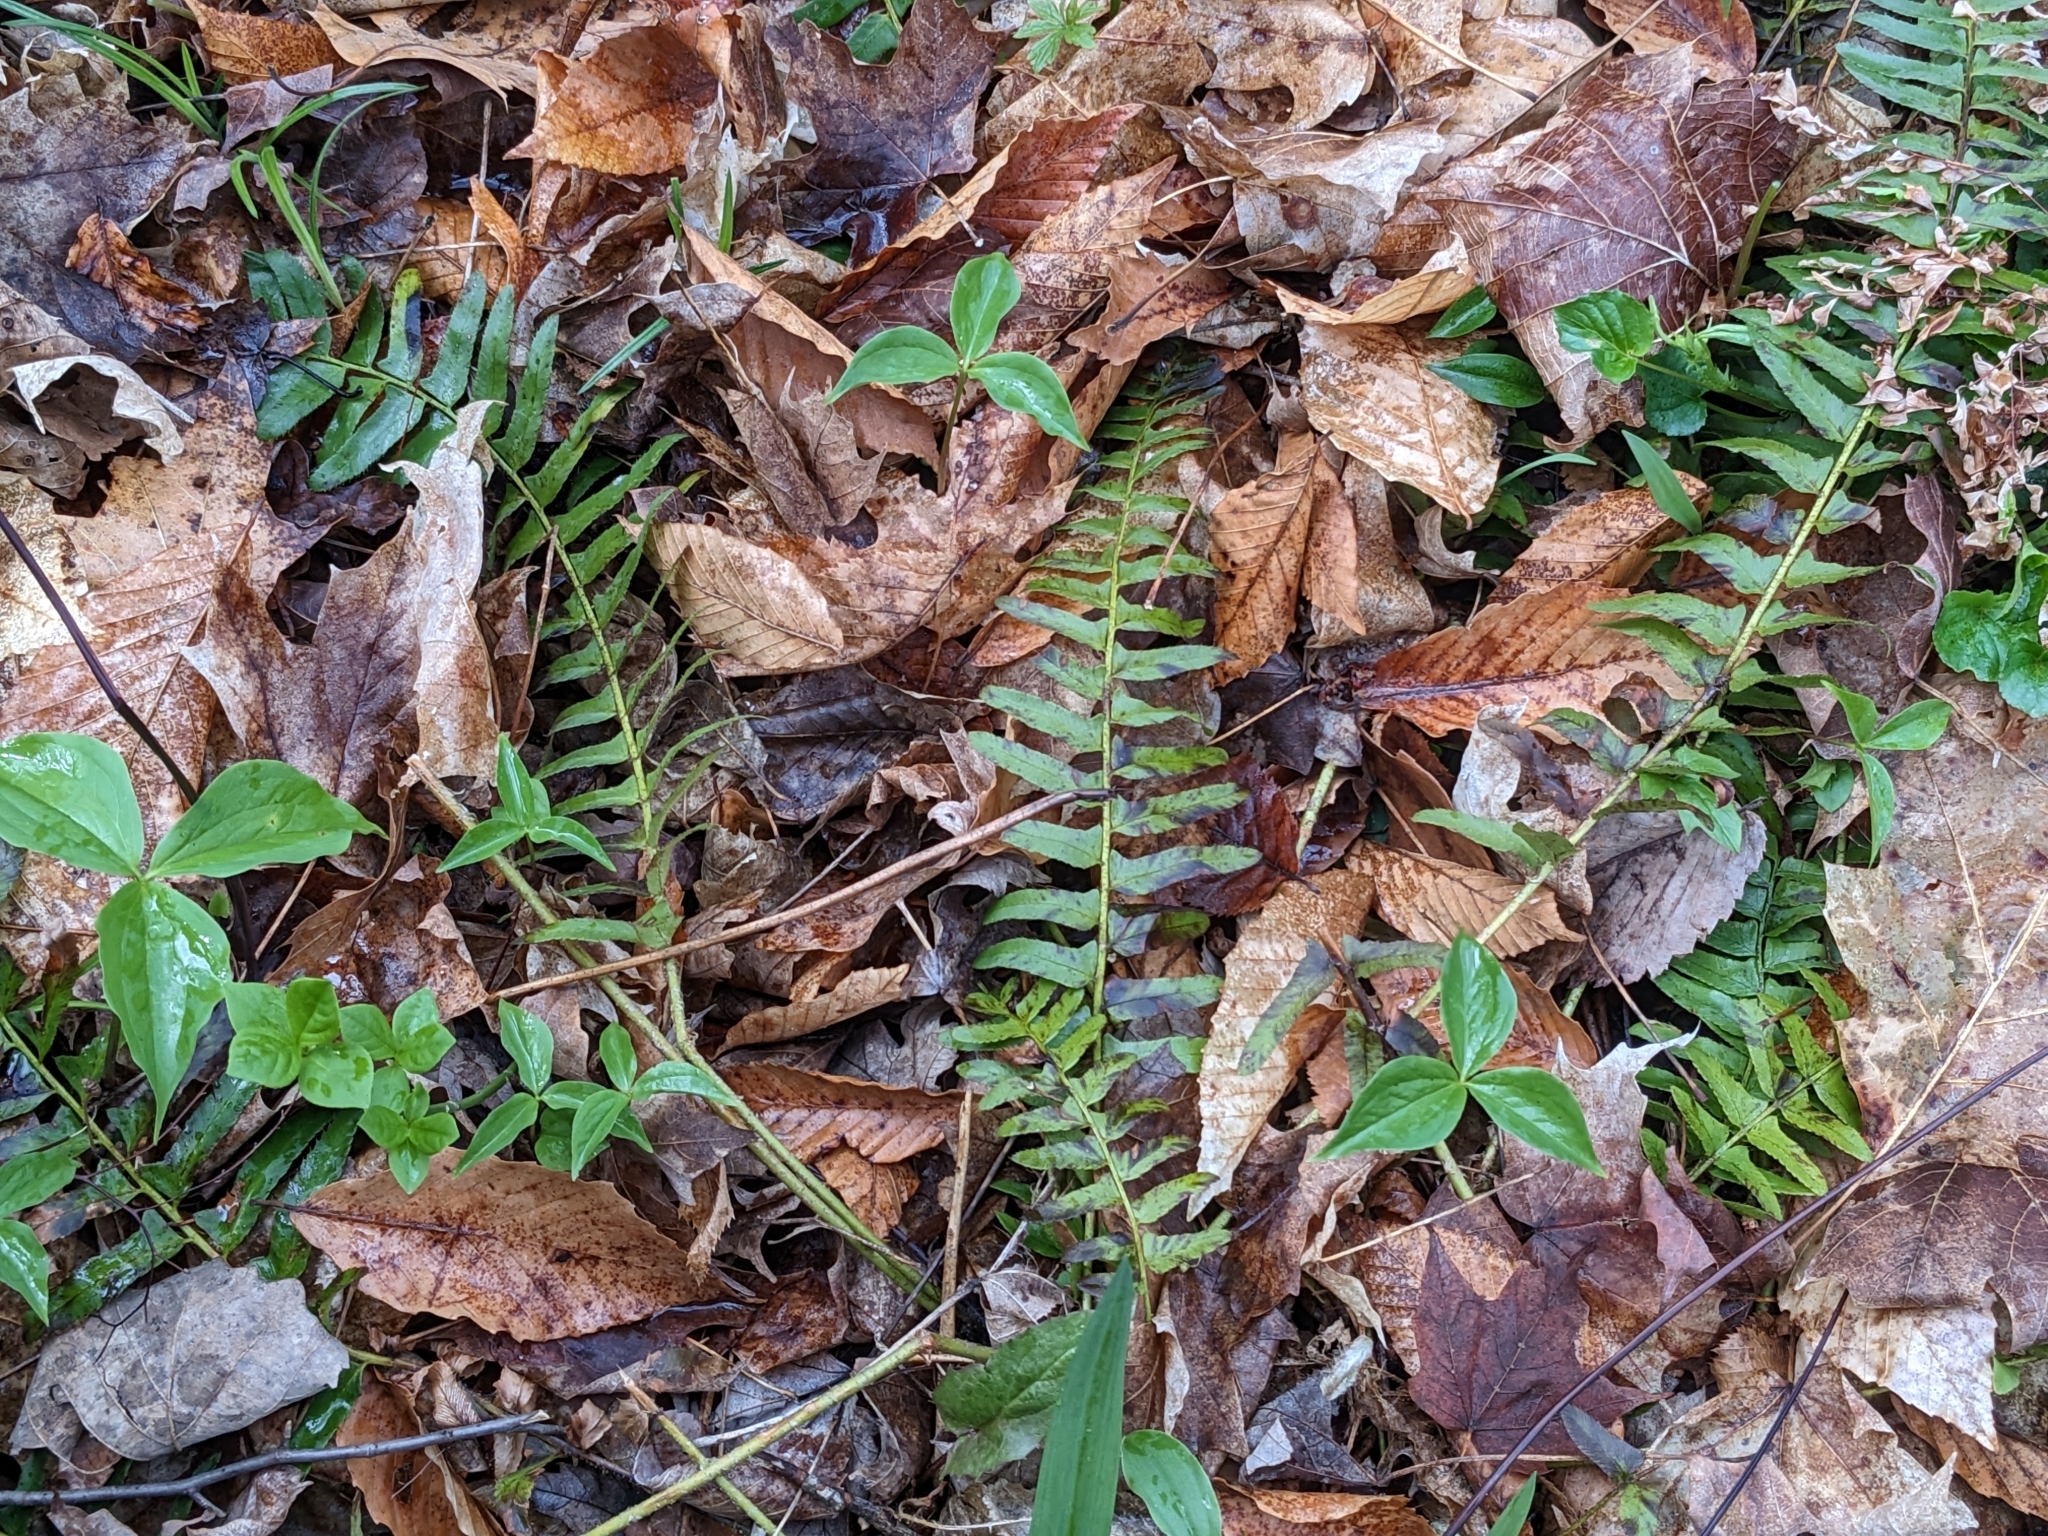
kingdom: Plantae
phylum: Tracheophyta
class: Polypodiopsida
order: Polypodiales
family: Dryopteridaceae
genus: Polystichum
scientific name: Polystichum acrostichoides
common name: Christmas fern
